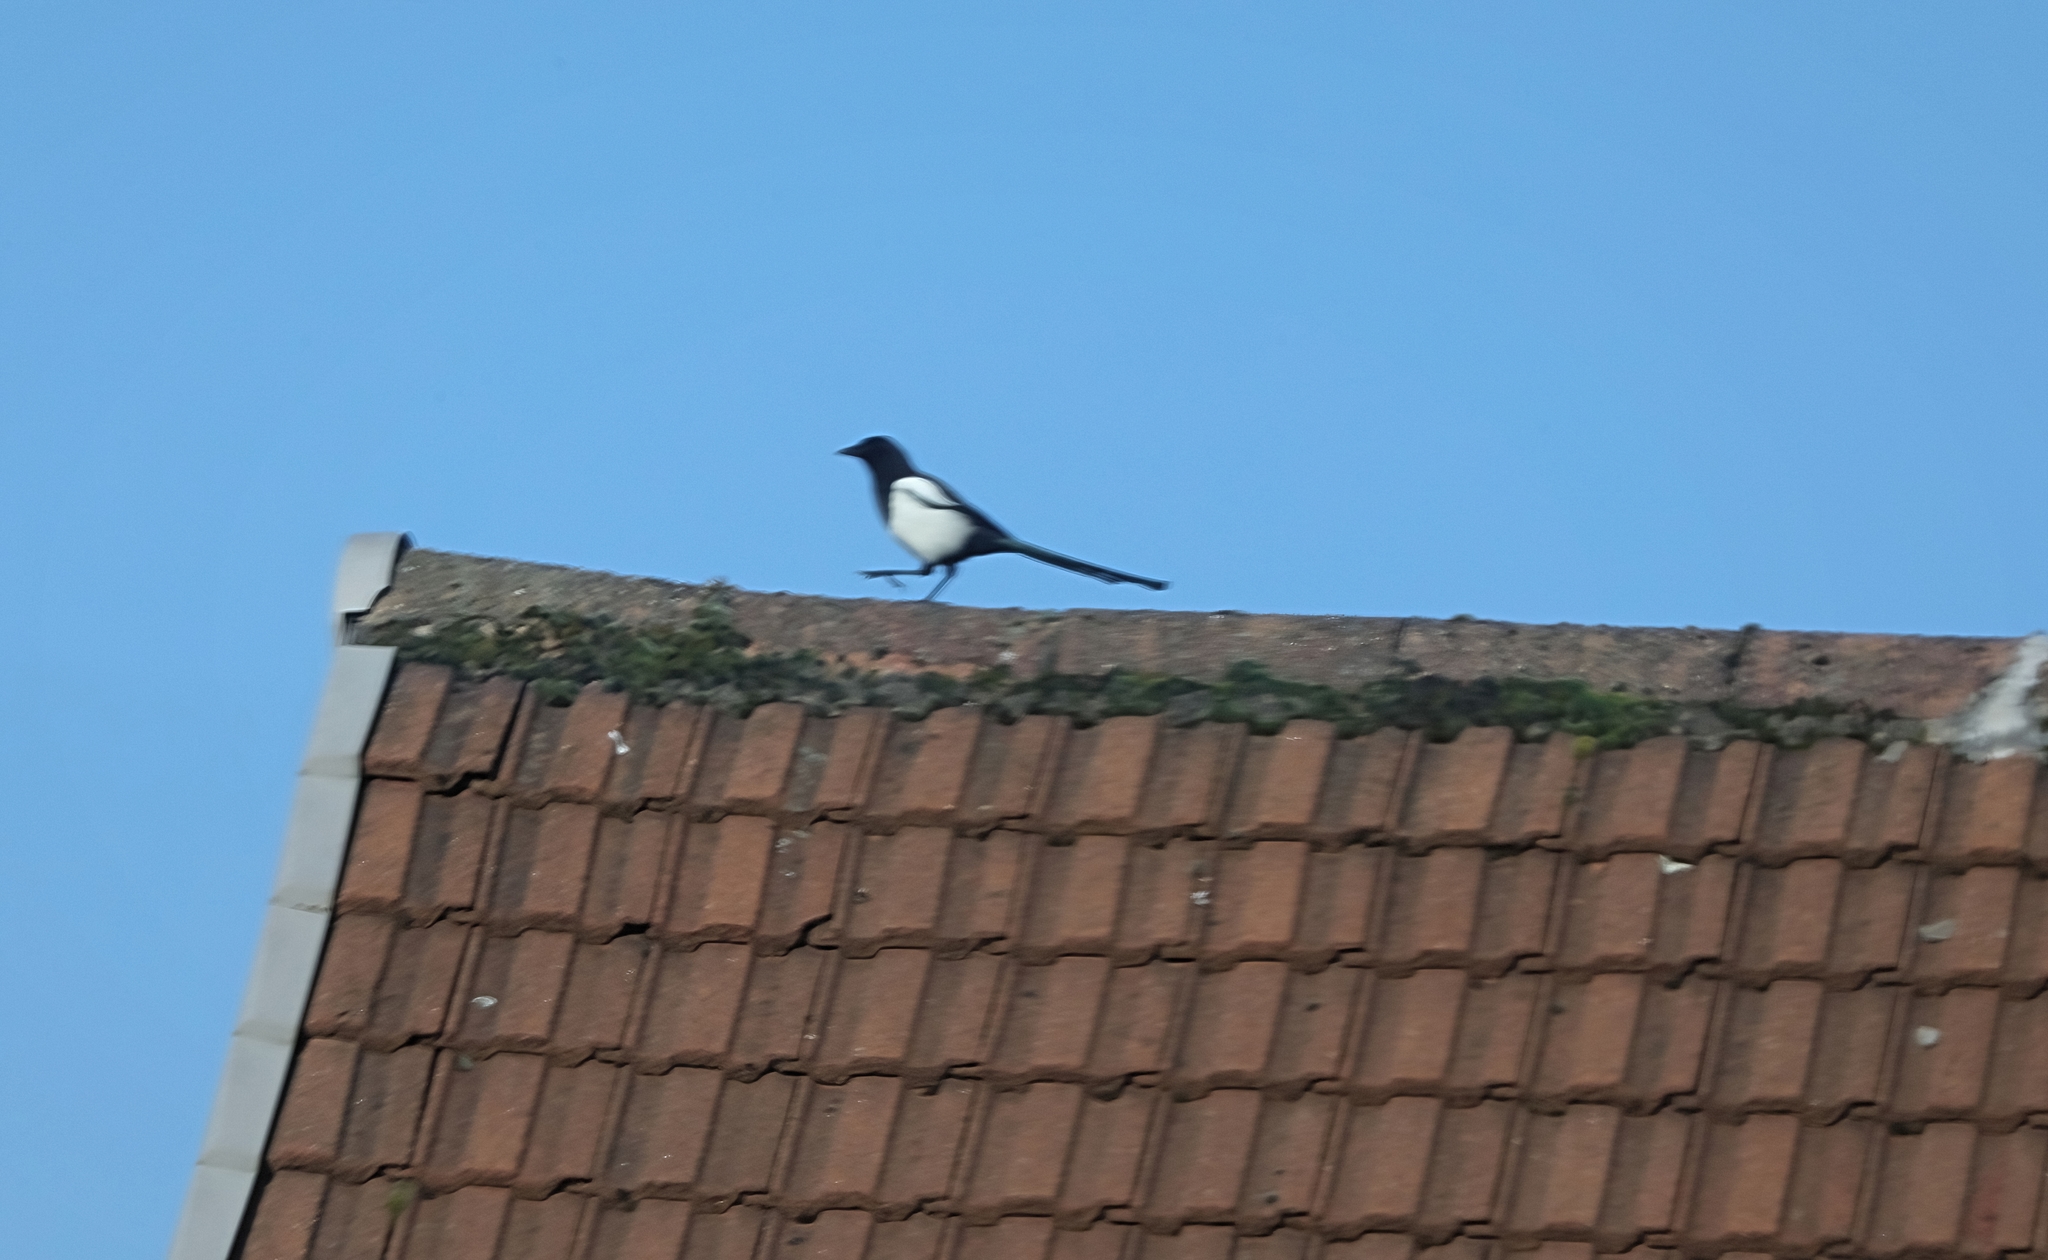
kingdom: Animalia
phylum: Chordata
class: Aves
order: Passeriformes
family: Corvidae
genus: Pica
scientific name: Pica pica
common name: Eurasian magpie
